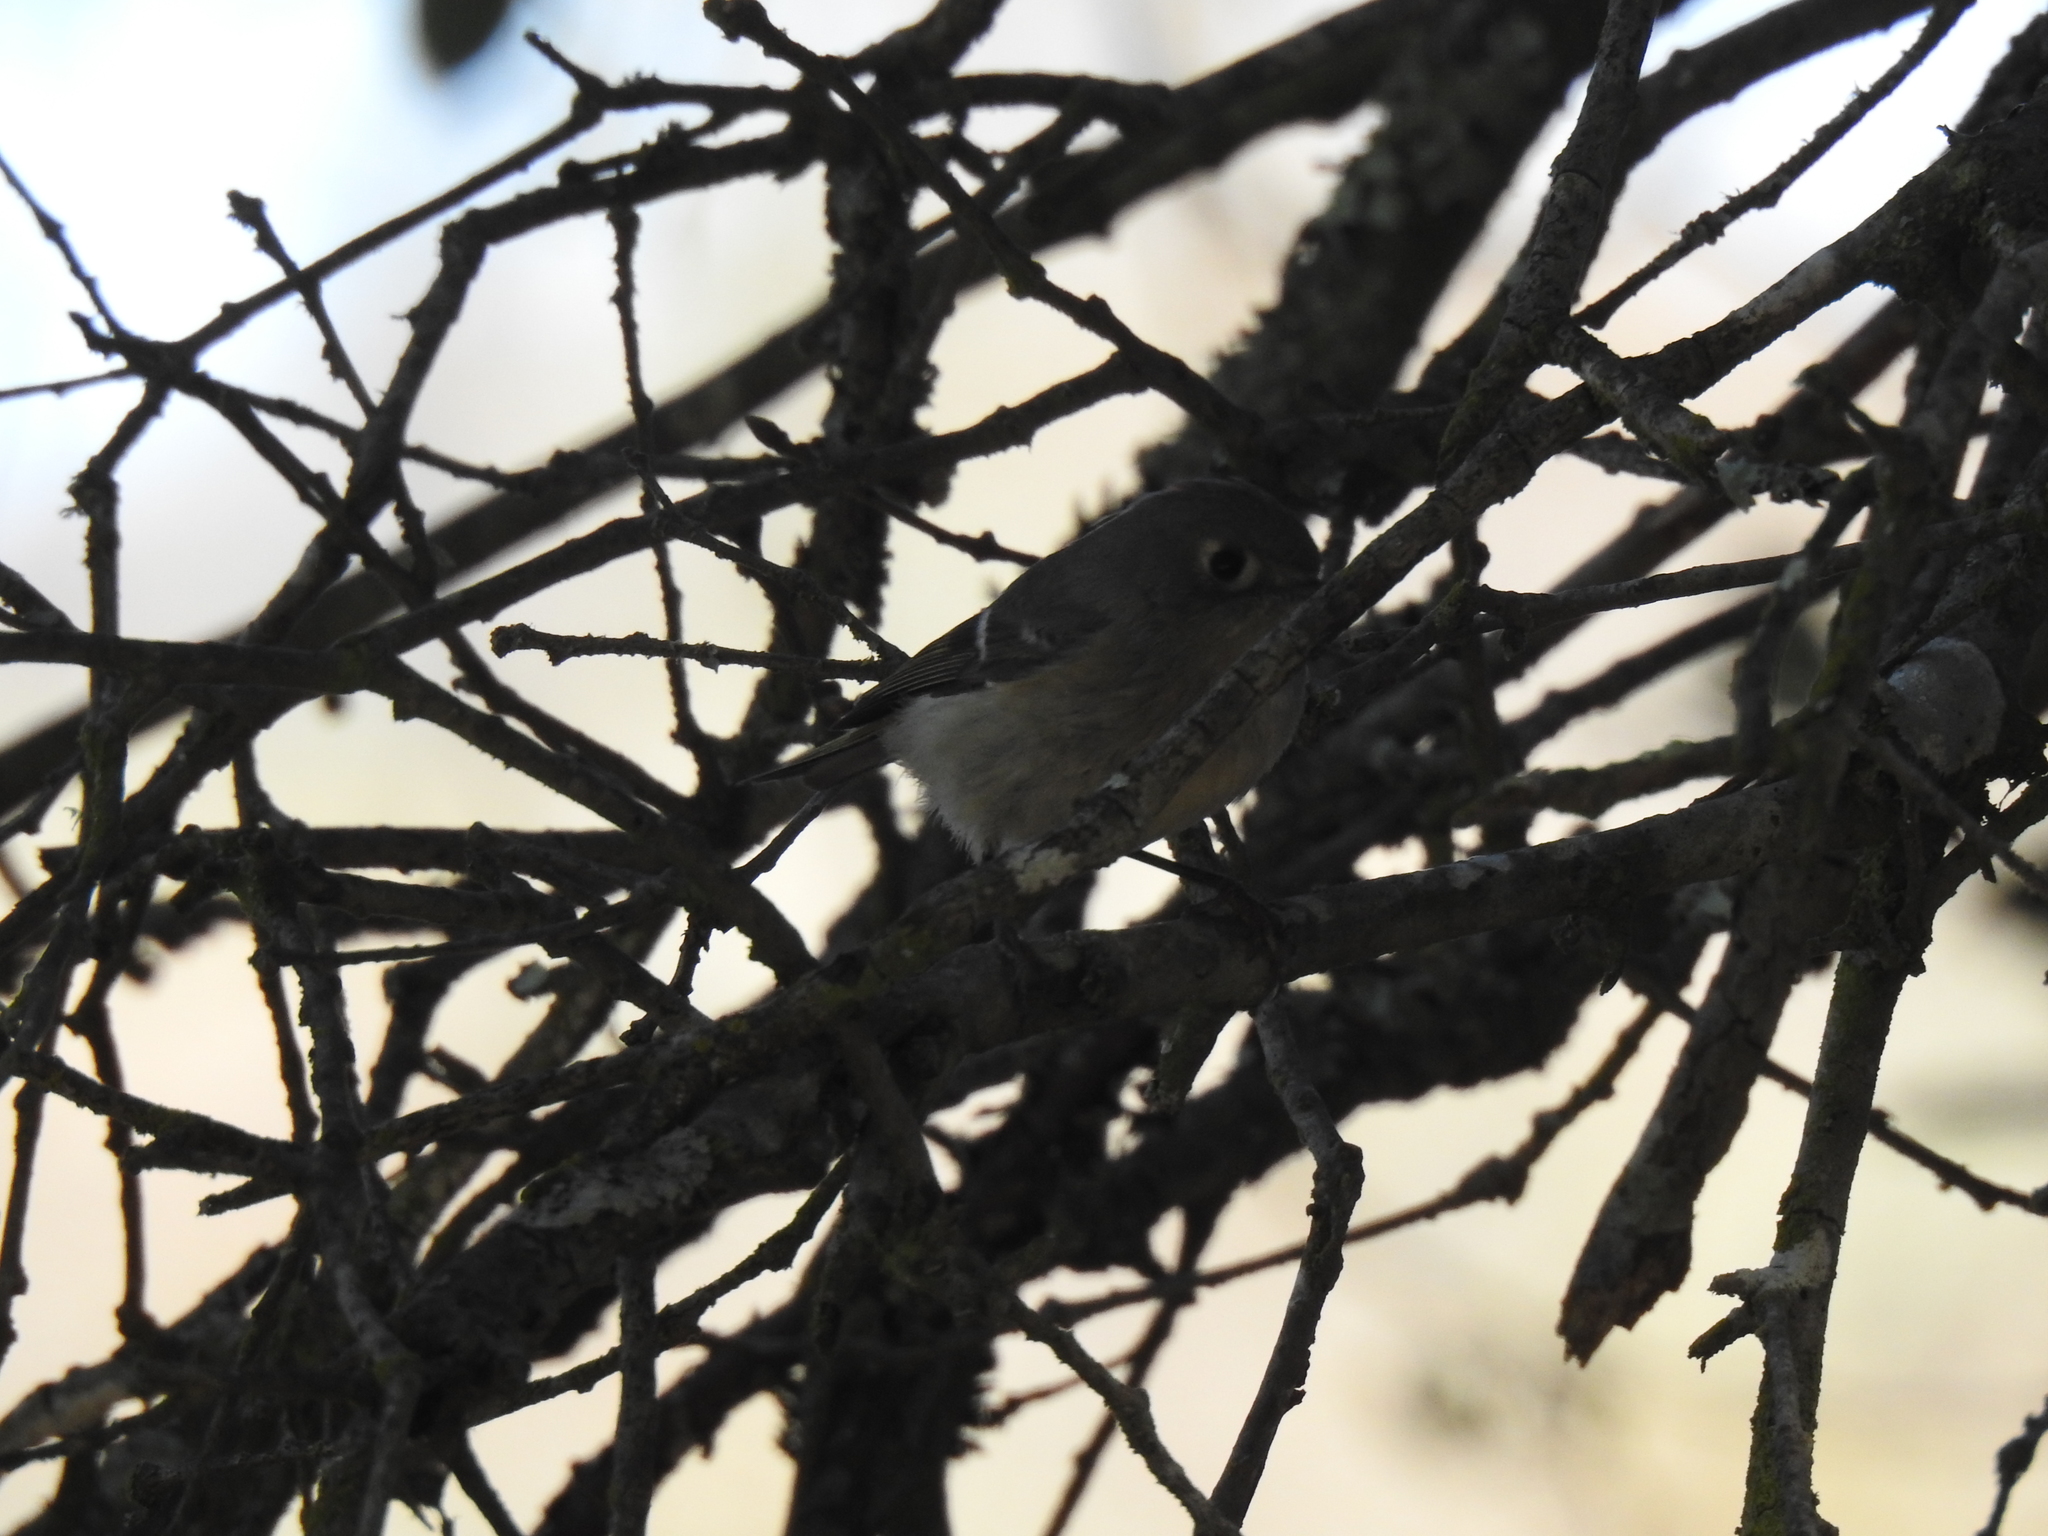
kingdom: Animalia
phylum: Chordata
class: Aves
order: Passeriformes
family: Regulidae
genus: Regulus
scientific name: Regulus calendula
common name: Ruby-crowned kinglet
